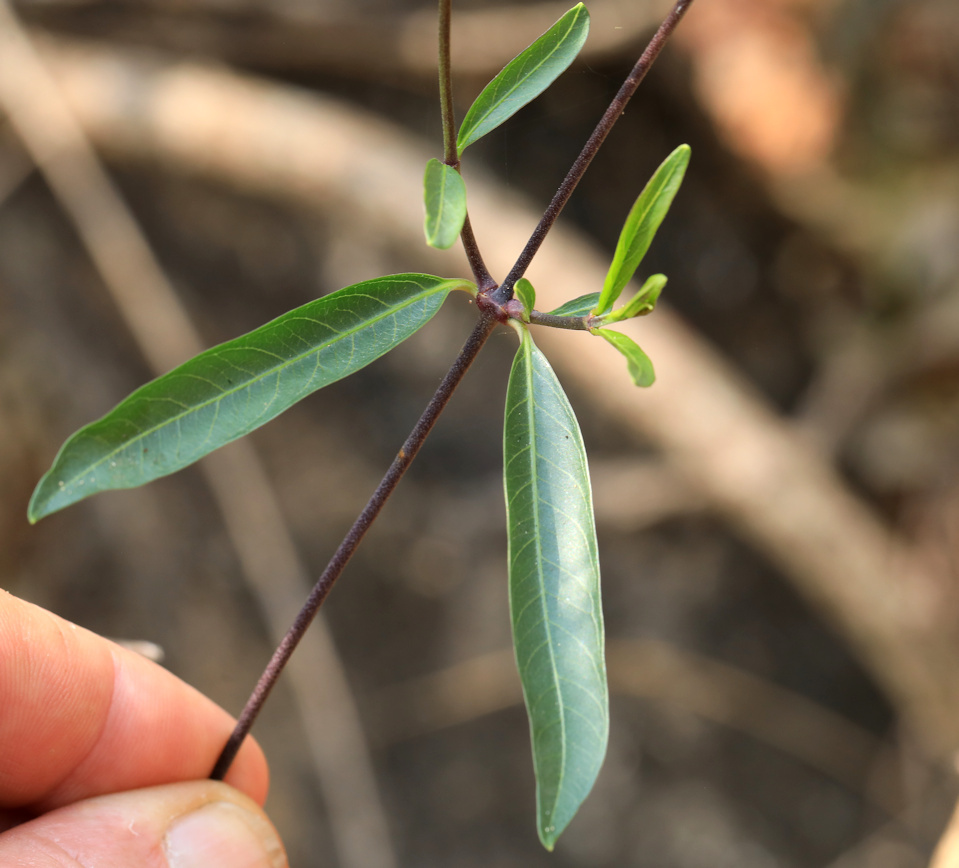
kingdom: Plantae
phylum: Tracheophyta
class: Magnoliopsida
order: Gentianales
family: Apocynaceae
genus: Stomatostemma
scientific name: Stomatostemma monteiroae
